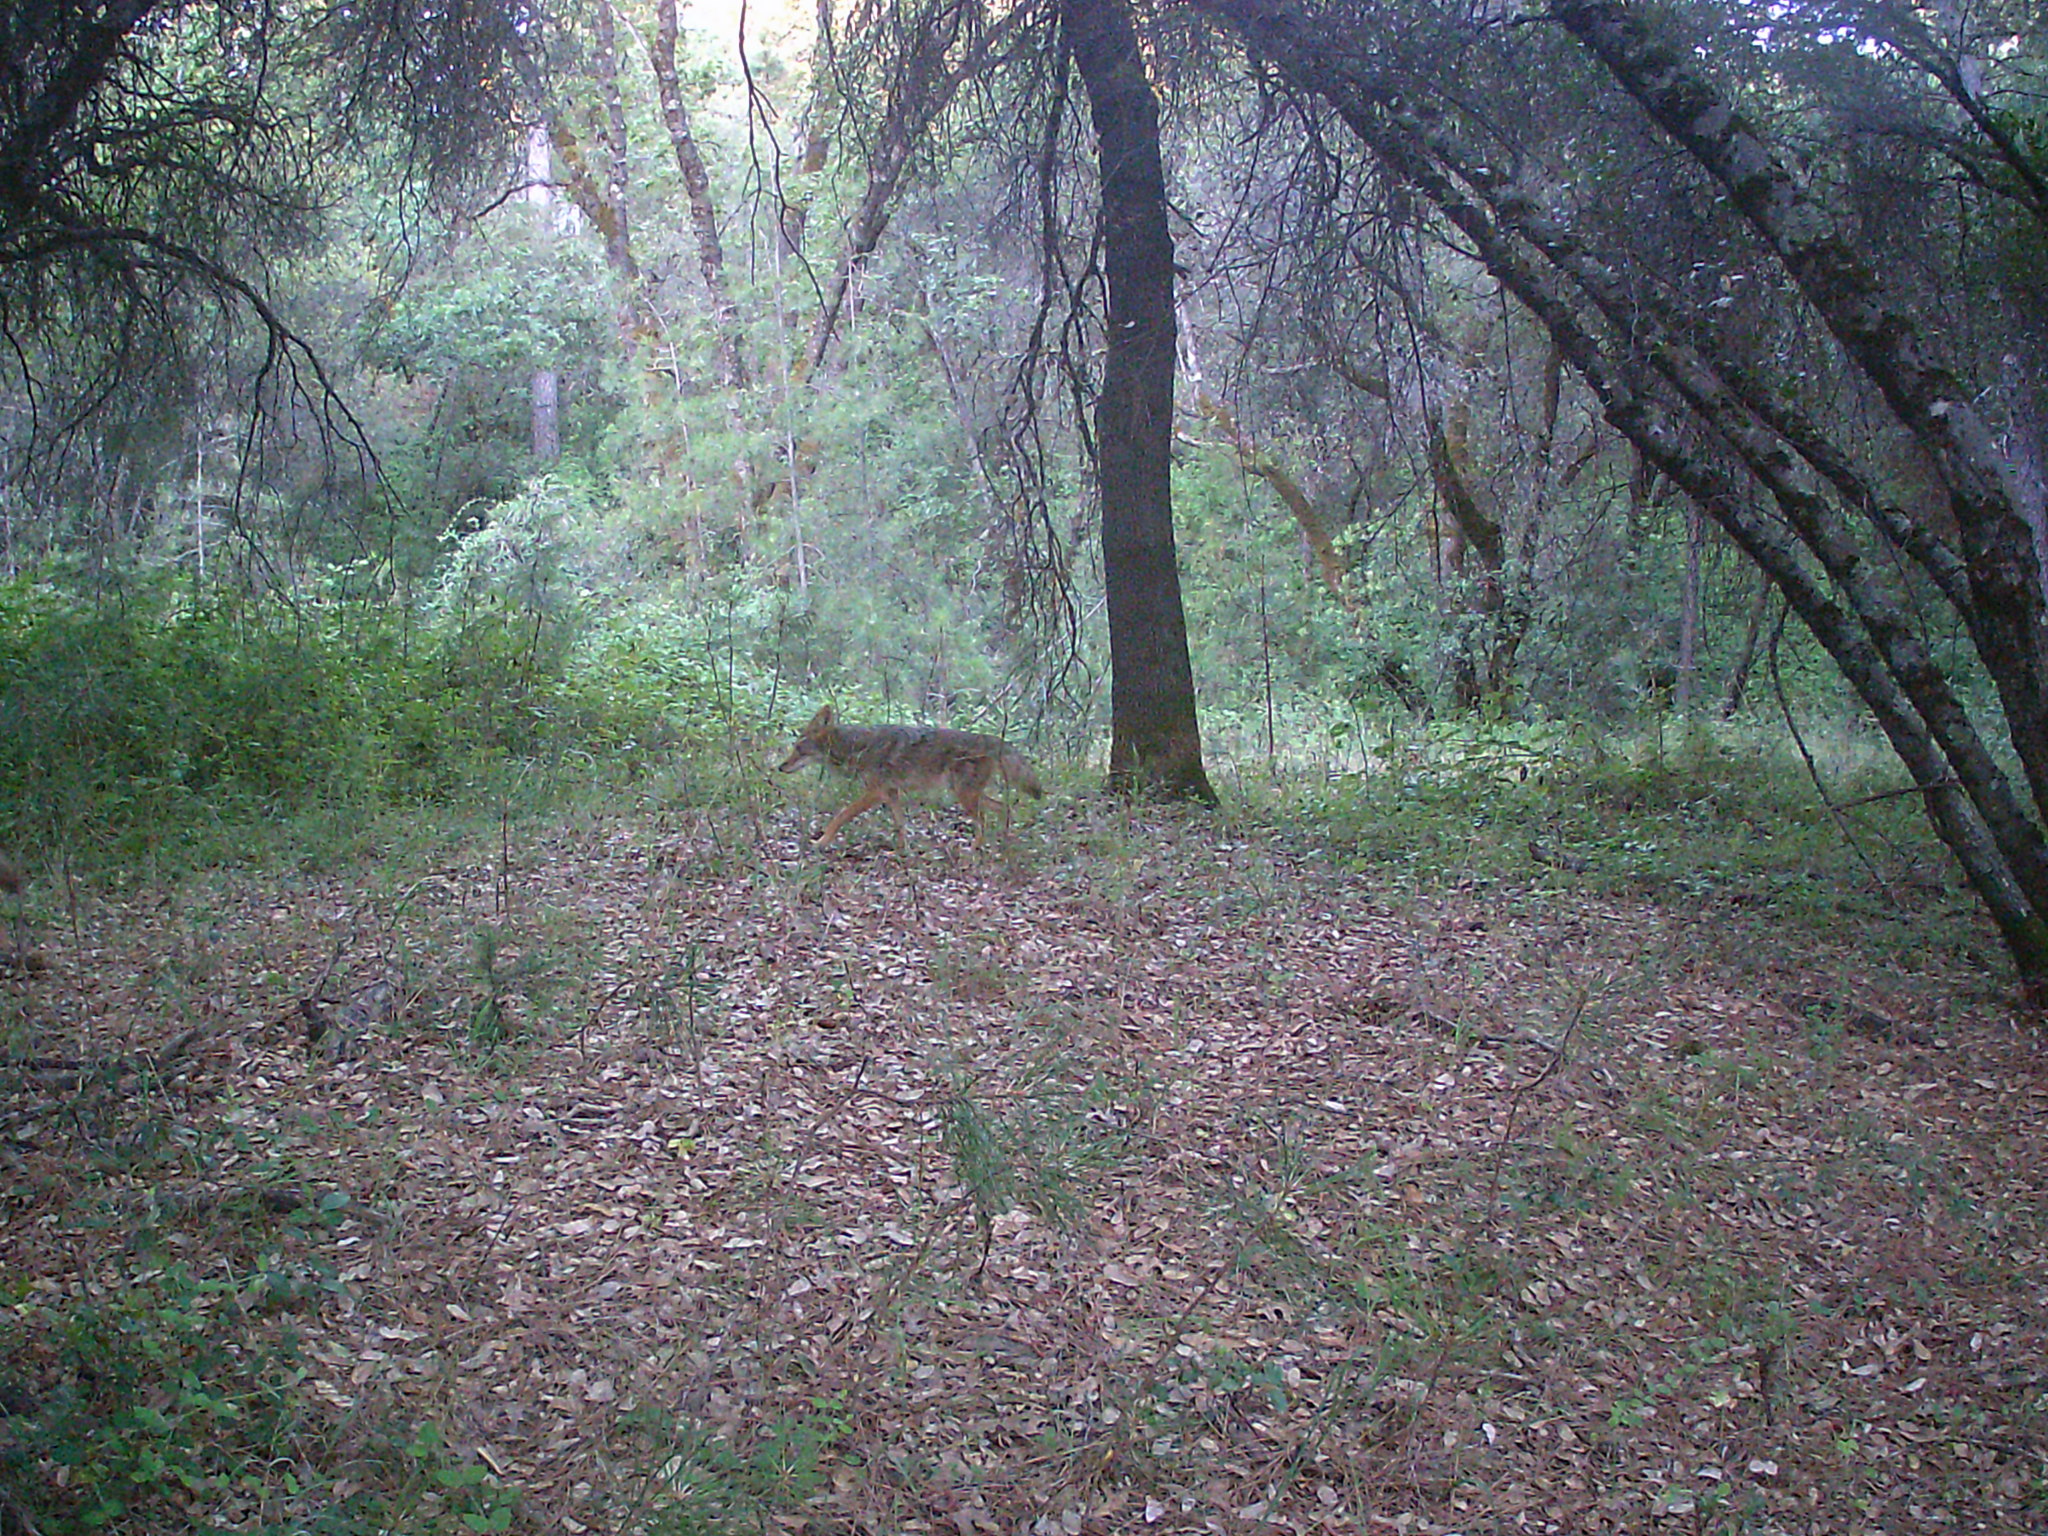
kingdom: Animalia
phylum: Chordata
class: Mammalia
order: Carnivora
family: Canidae
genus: Canis
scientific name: Canis latrans
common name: Coyote
